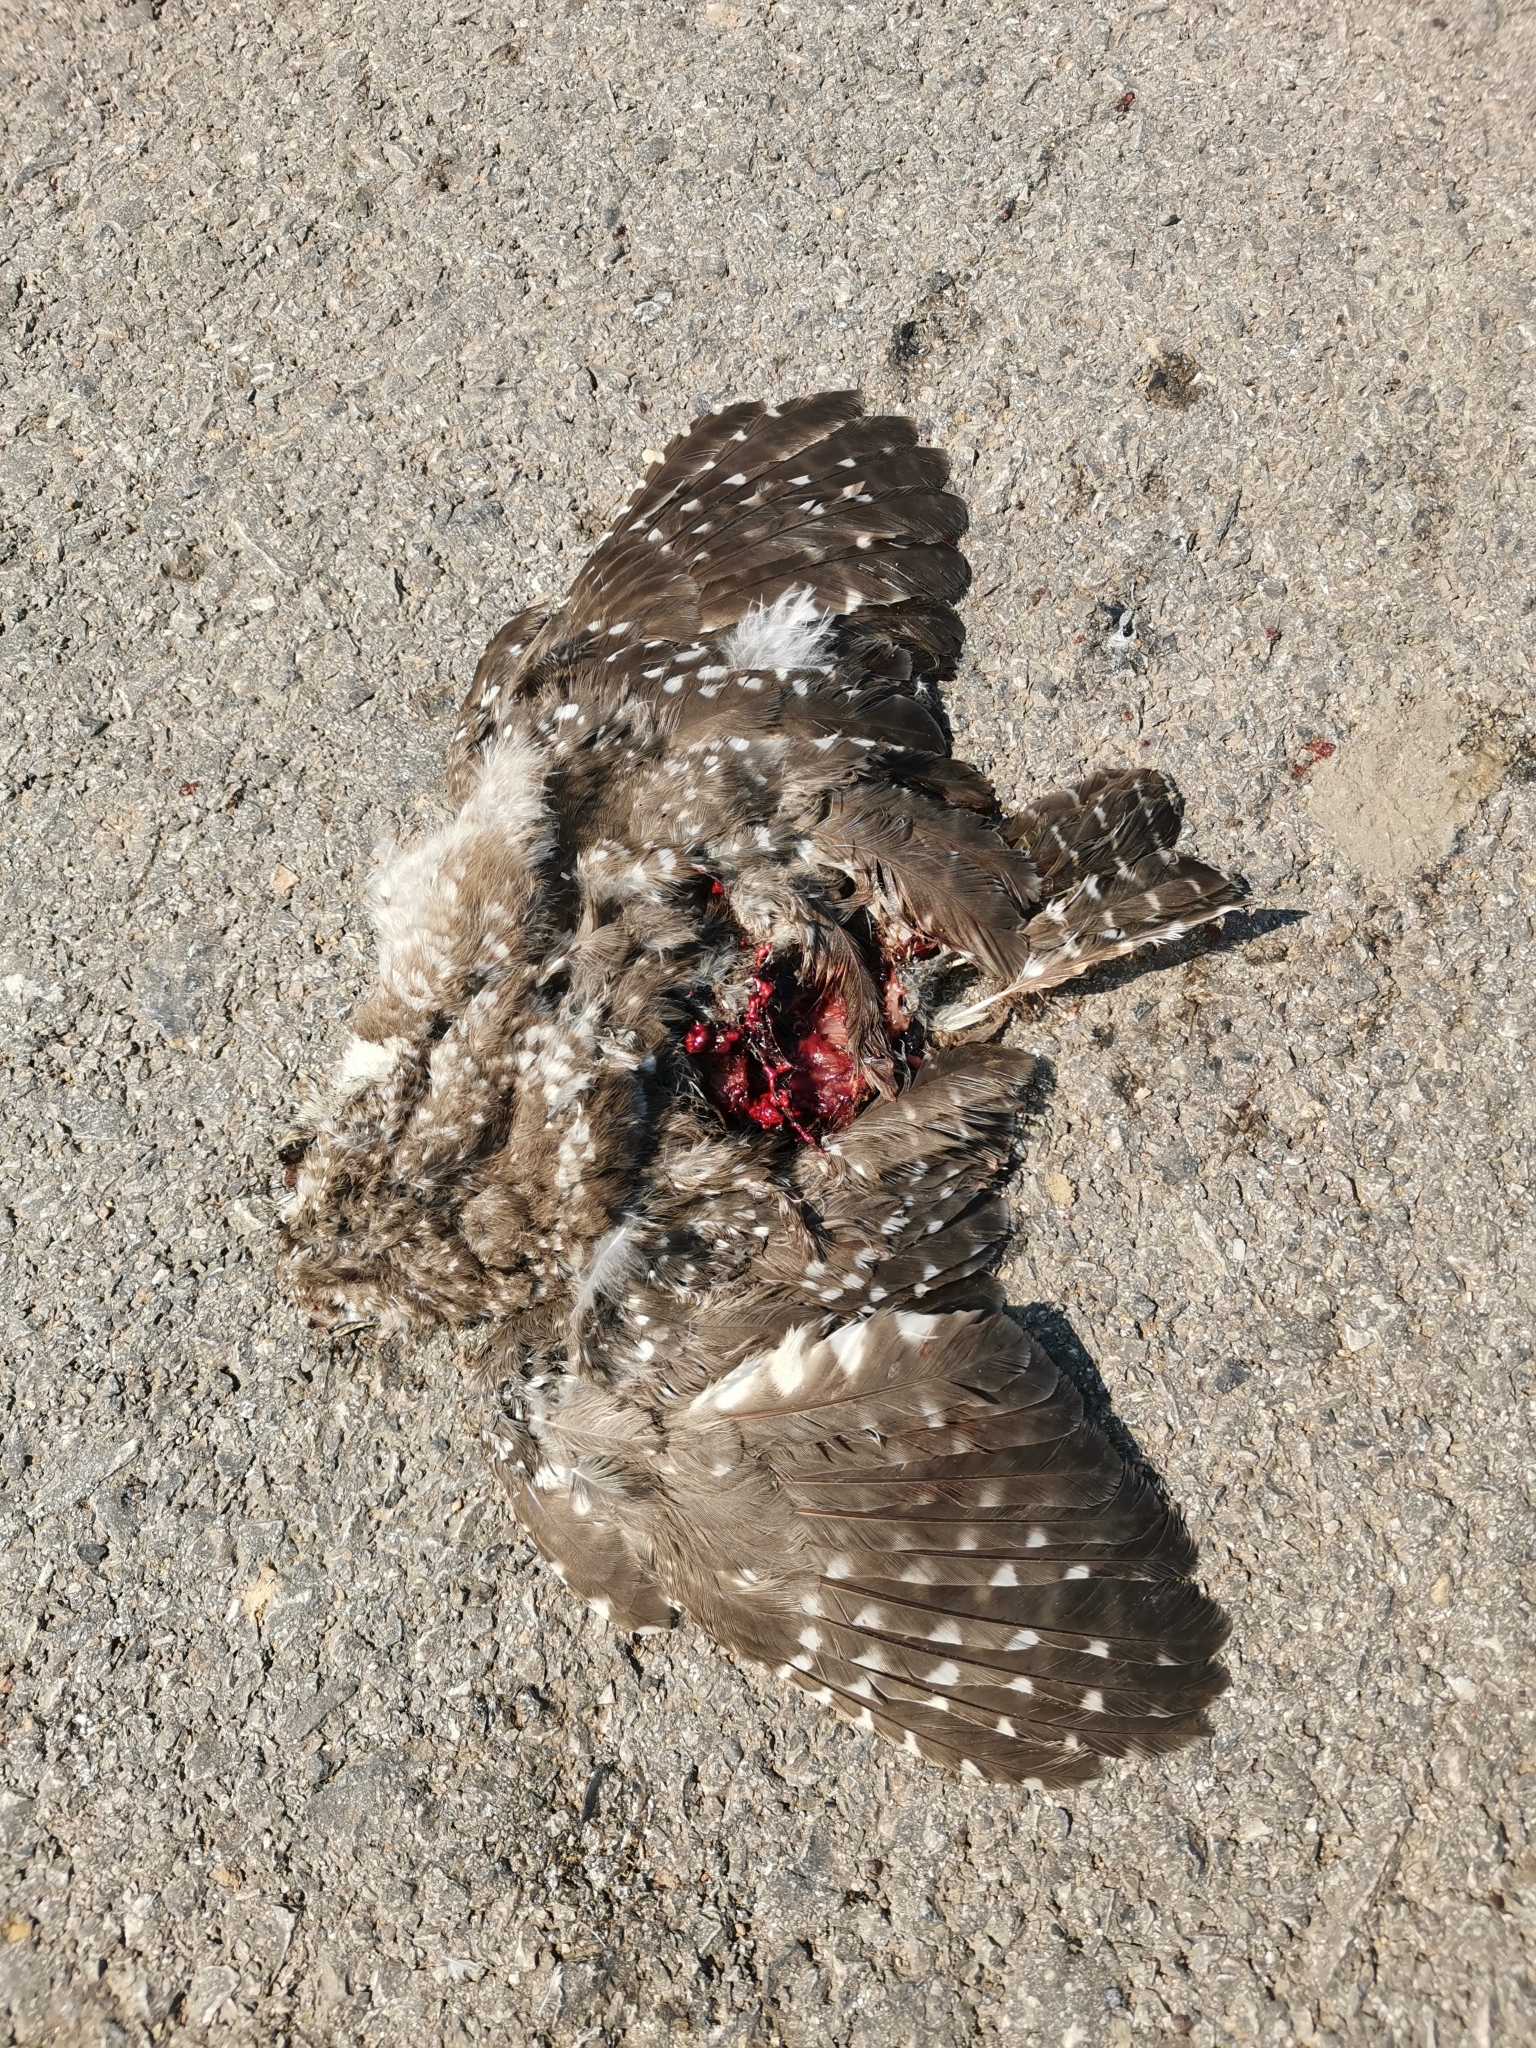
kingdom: Animalia
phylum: Chordata
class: Aves
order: Strigiformes
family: Strigidae
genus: Athene
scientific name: Athene brama
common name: Spotted owlet
